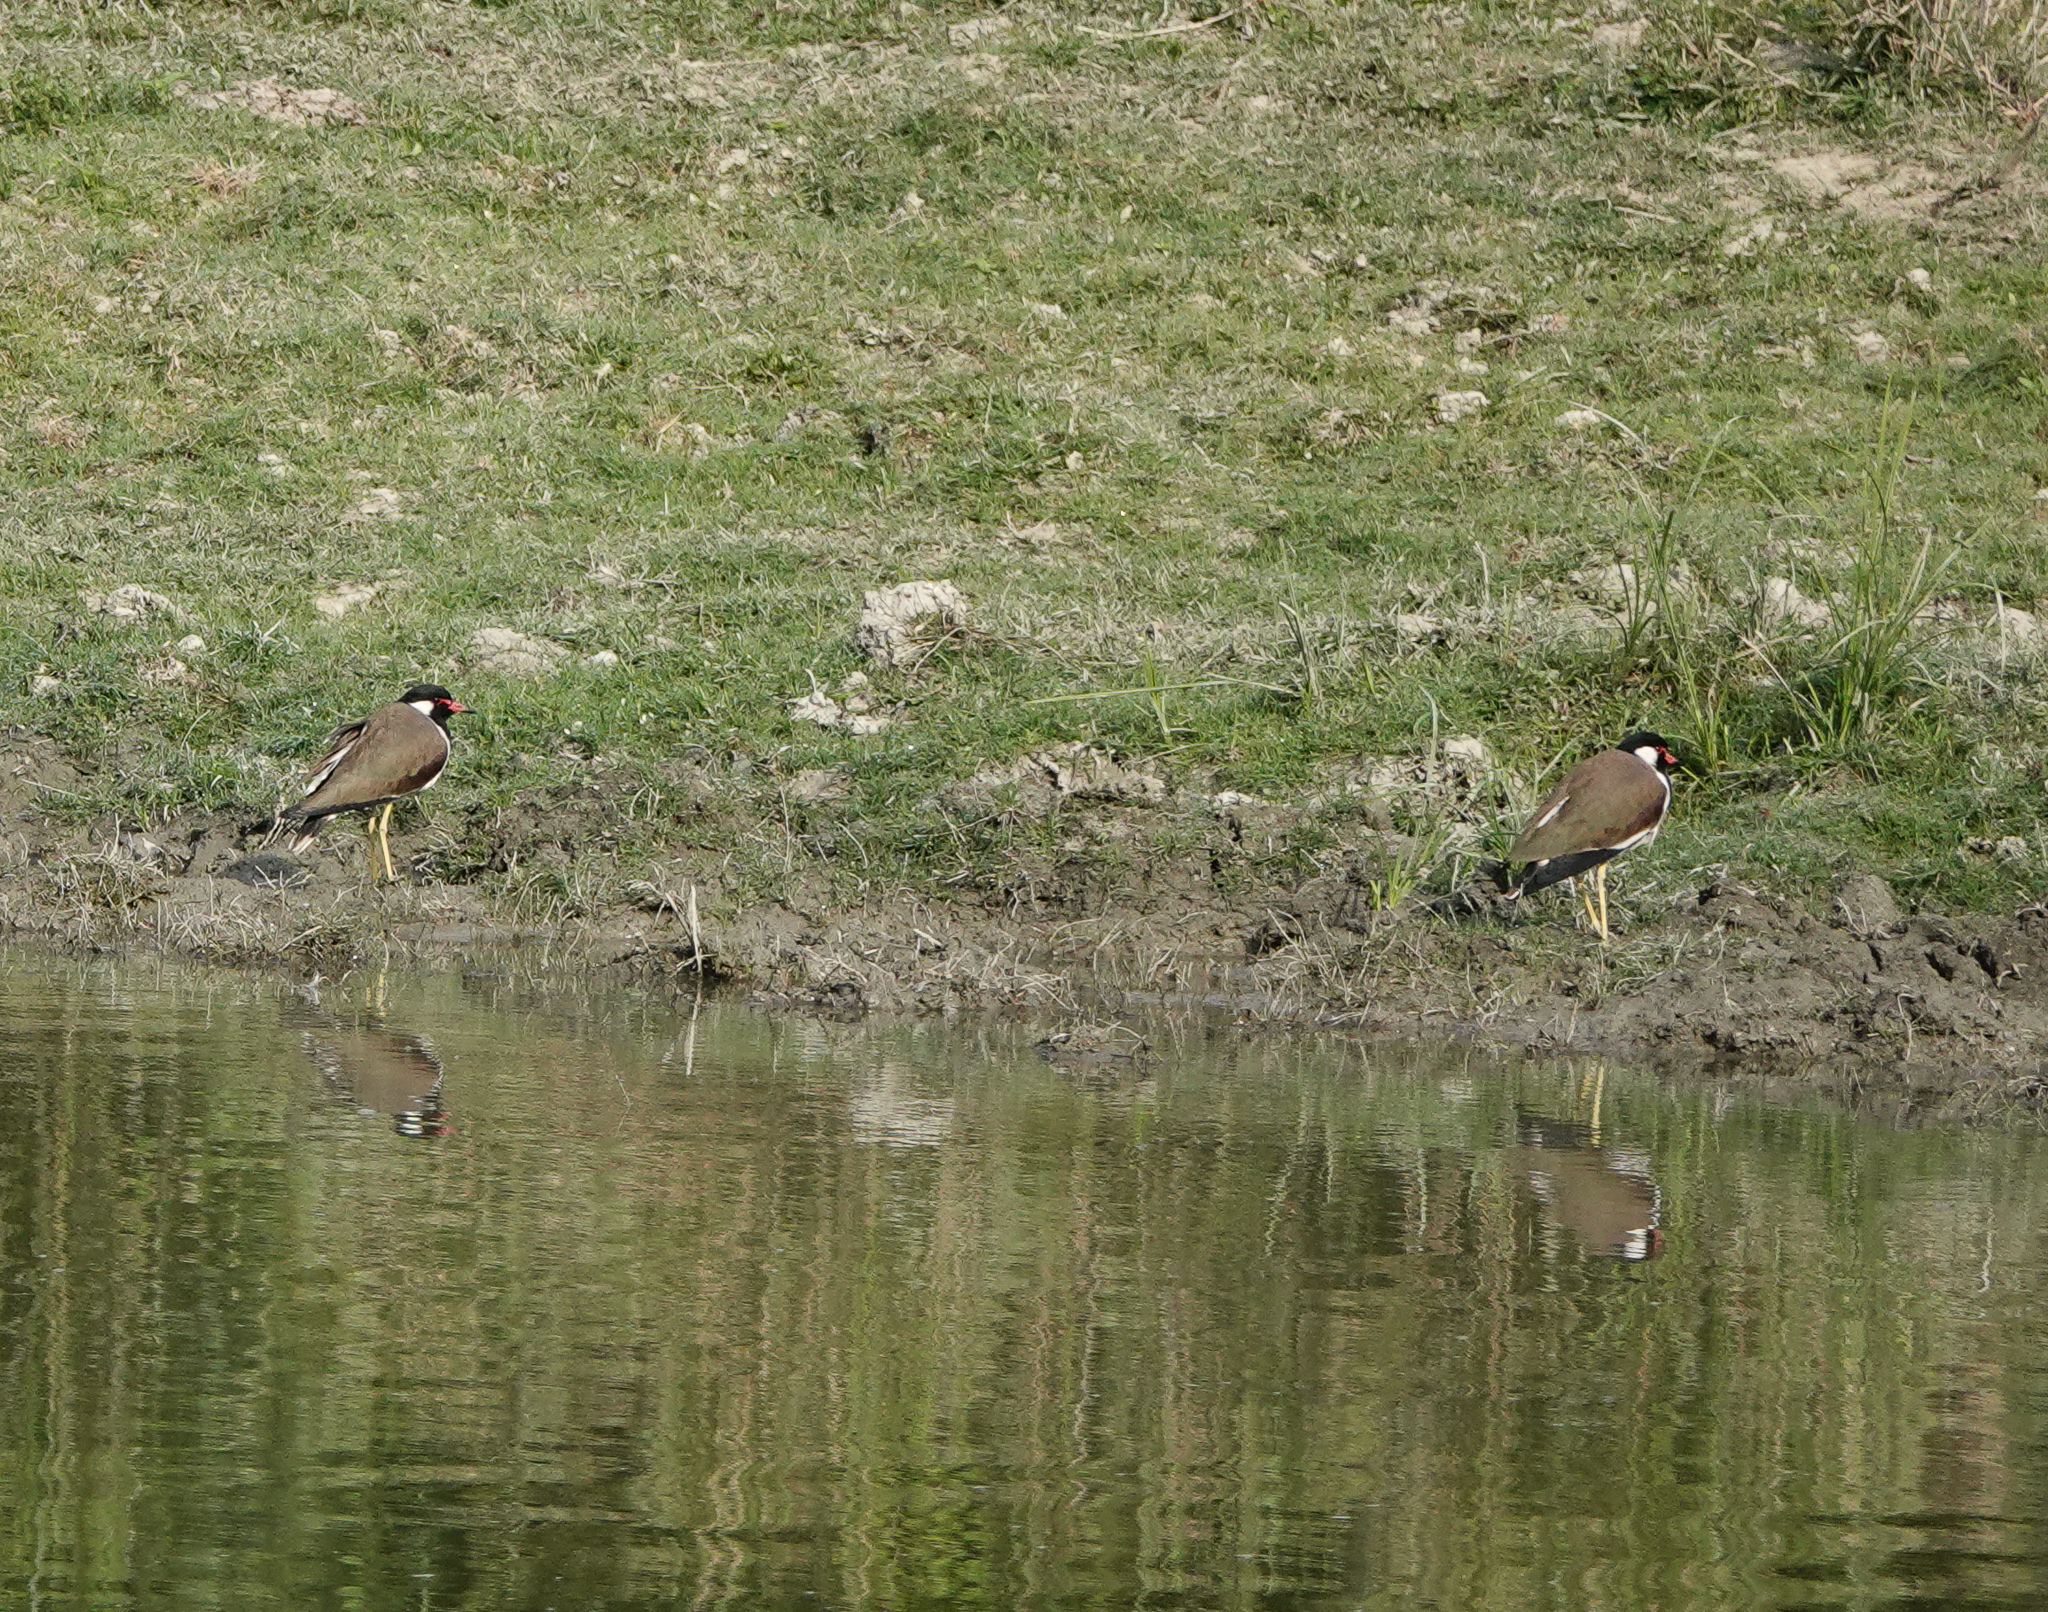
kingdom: Animalia
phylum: Chordata
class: Aves
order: Charadriiformes
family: Charadriidae
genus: Vanellus
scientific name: Vanellus indicus
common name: Red-wattled lapwing
